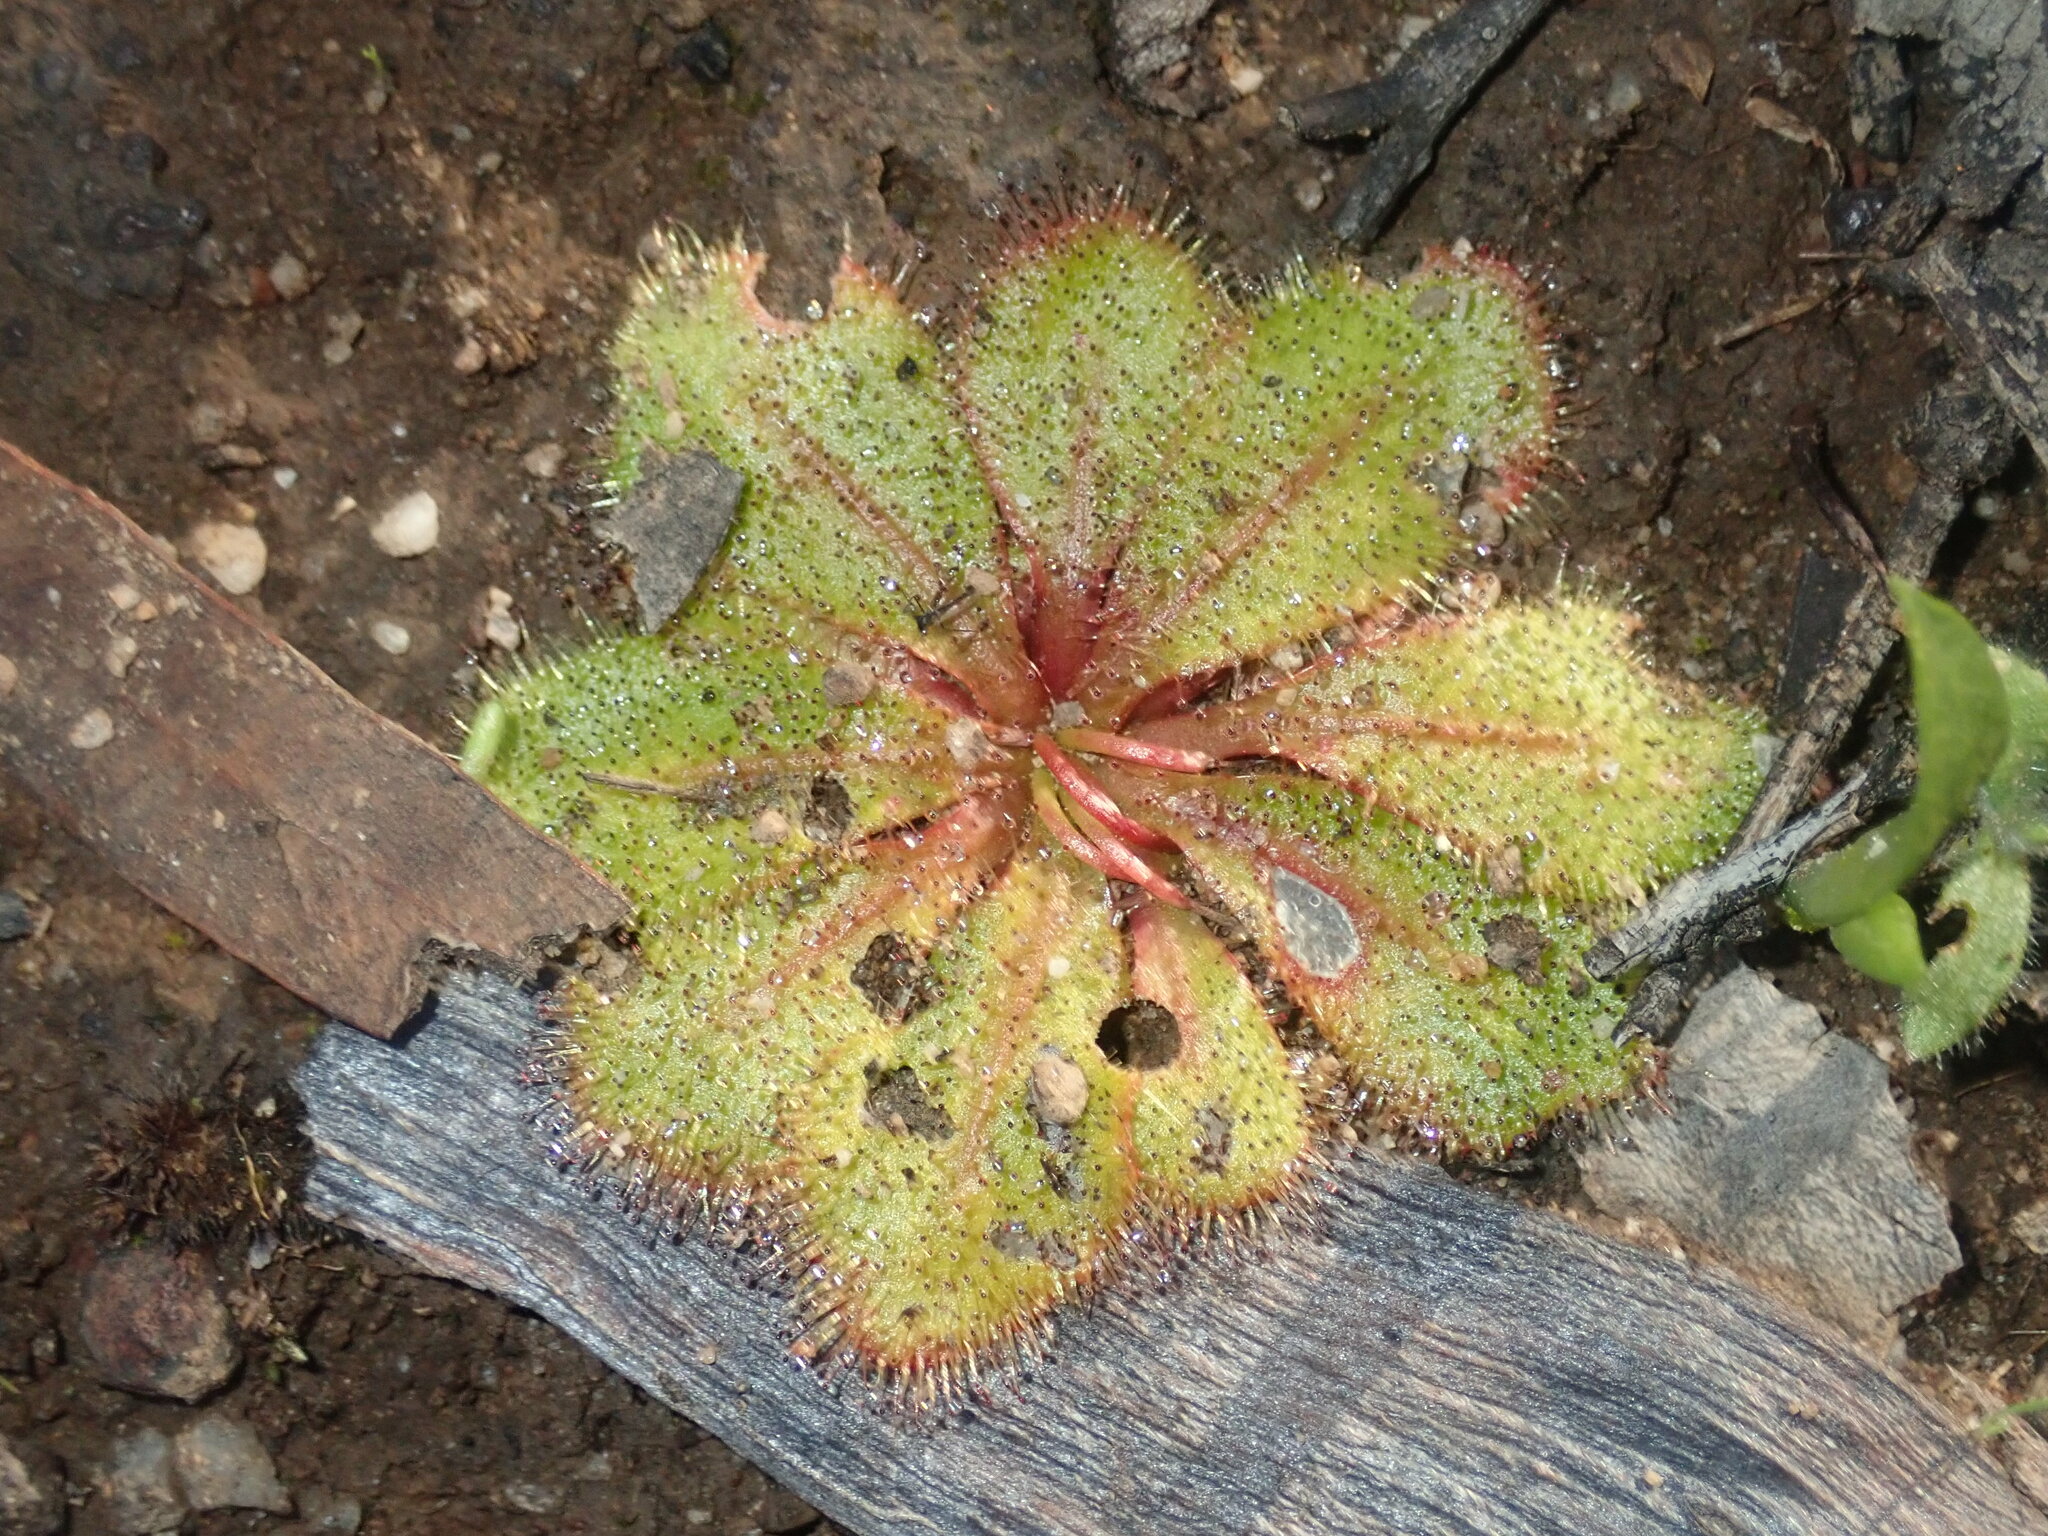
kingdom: Plantae
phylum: Tracheophyta
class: Magnoliopsida
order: Caryophyllales
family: Droseraceae
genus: Drosera
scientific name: Drosera bulbosa
